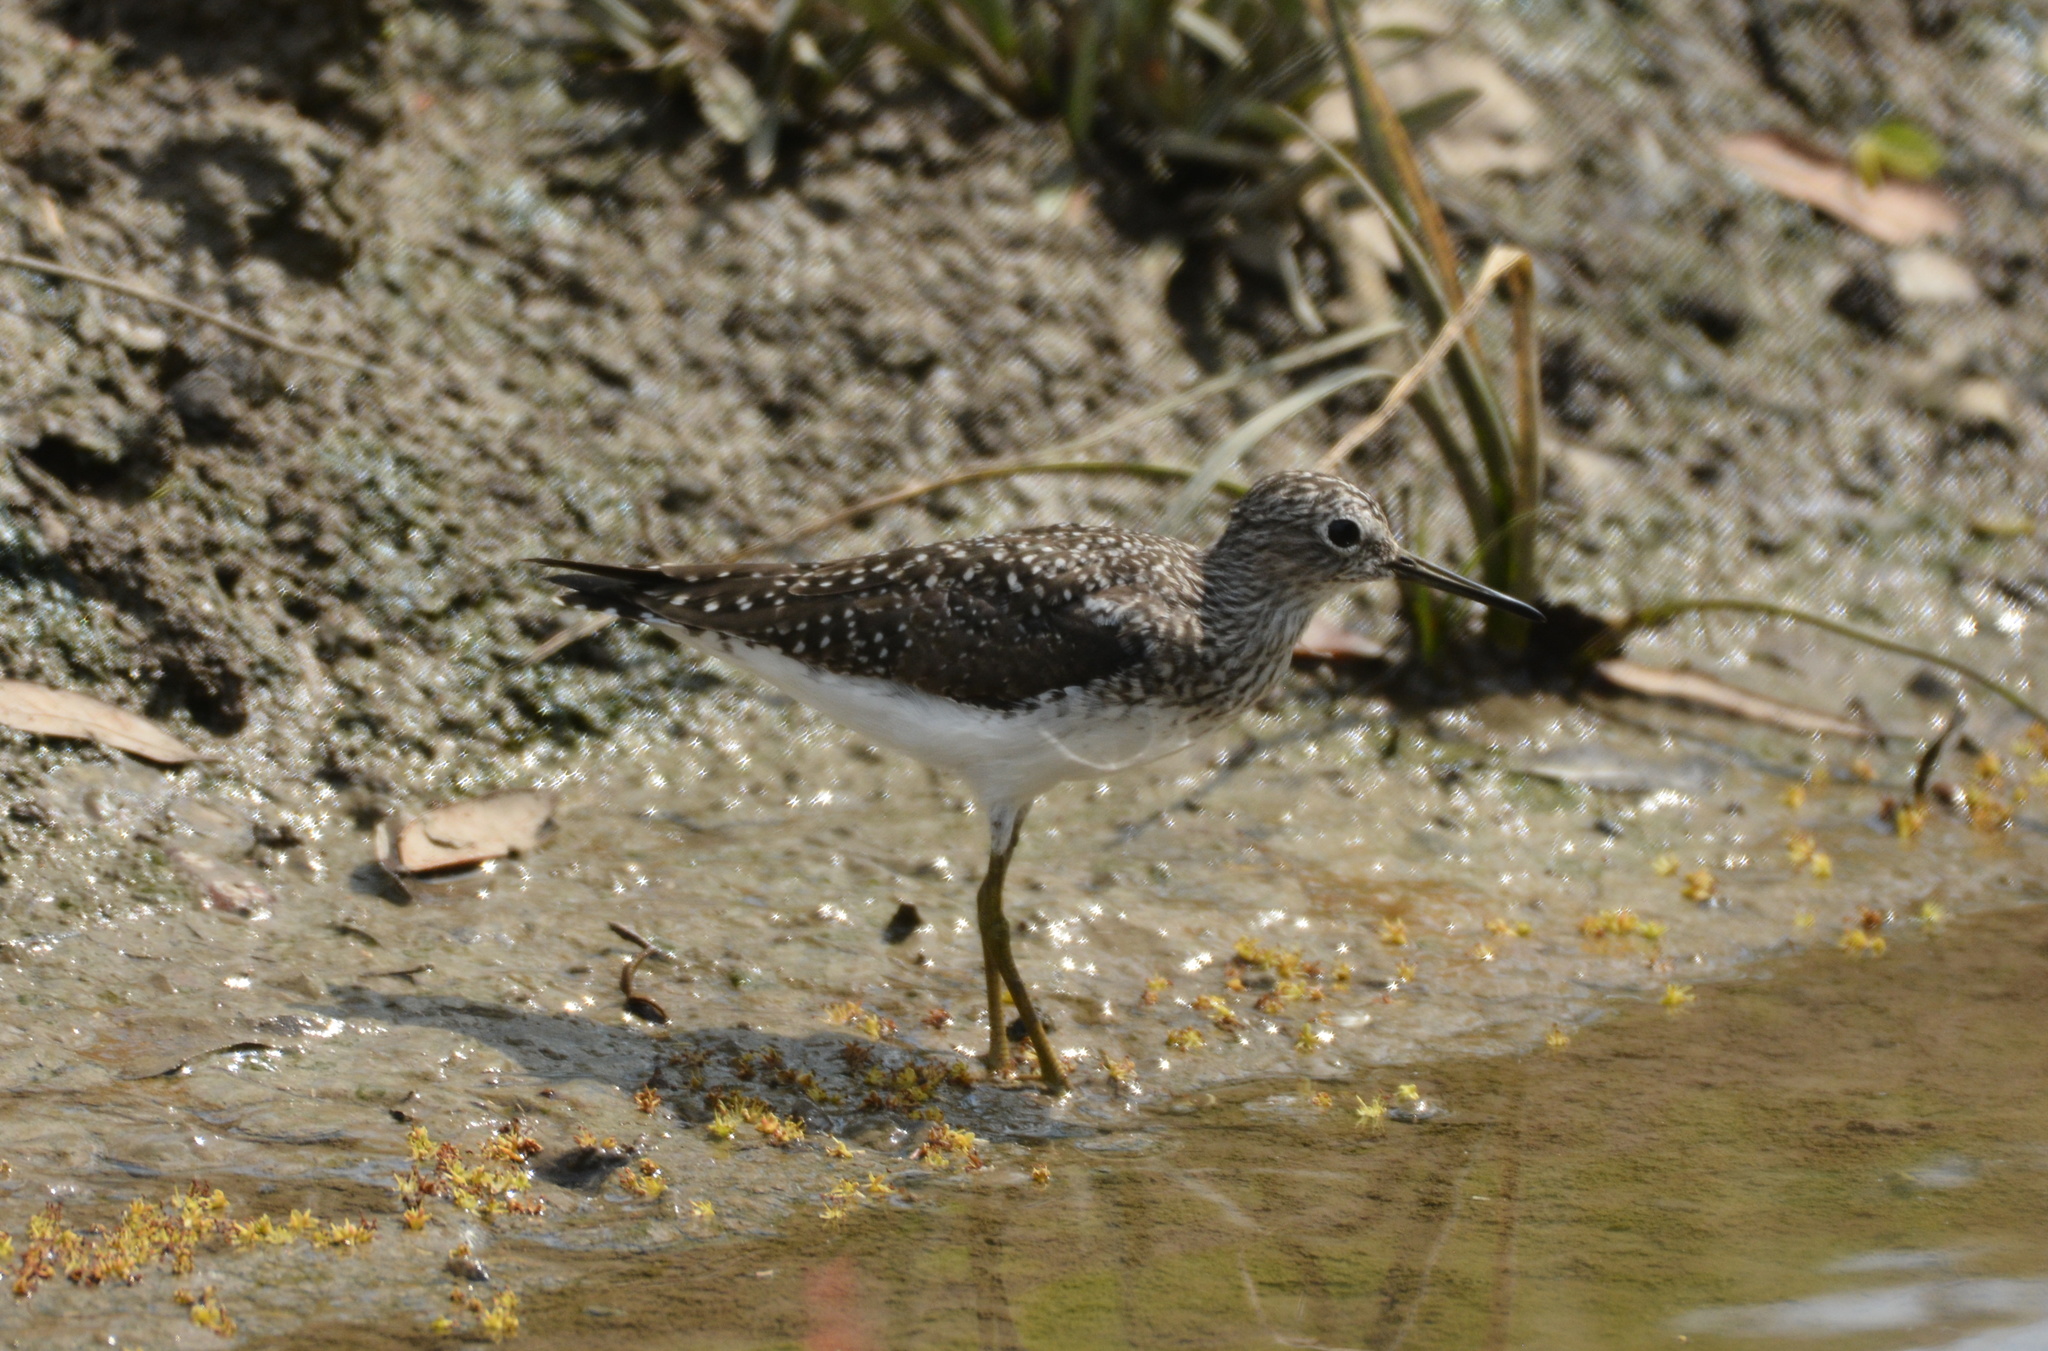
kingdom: Animalia
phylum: Chordata
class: Aves
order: Charadriiformes
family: Scolopacidae
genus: Tringa
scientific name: Tringa solitaria
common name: Solitary sandpiper
